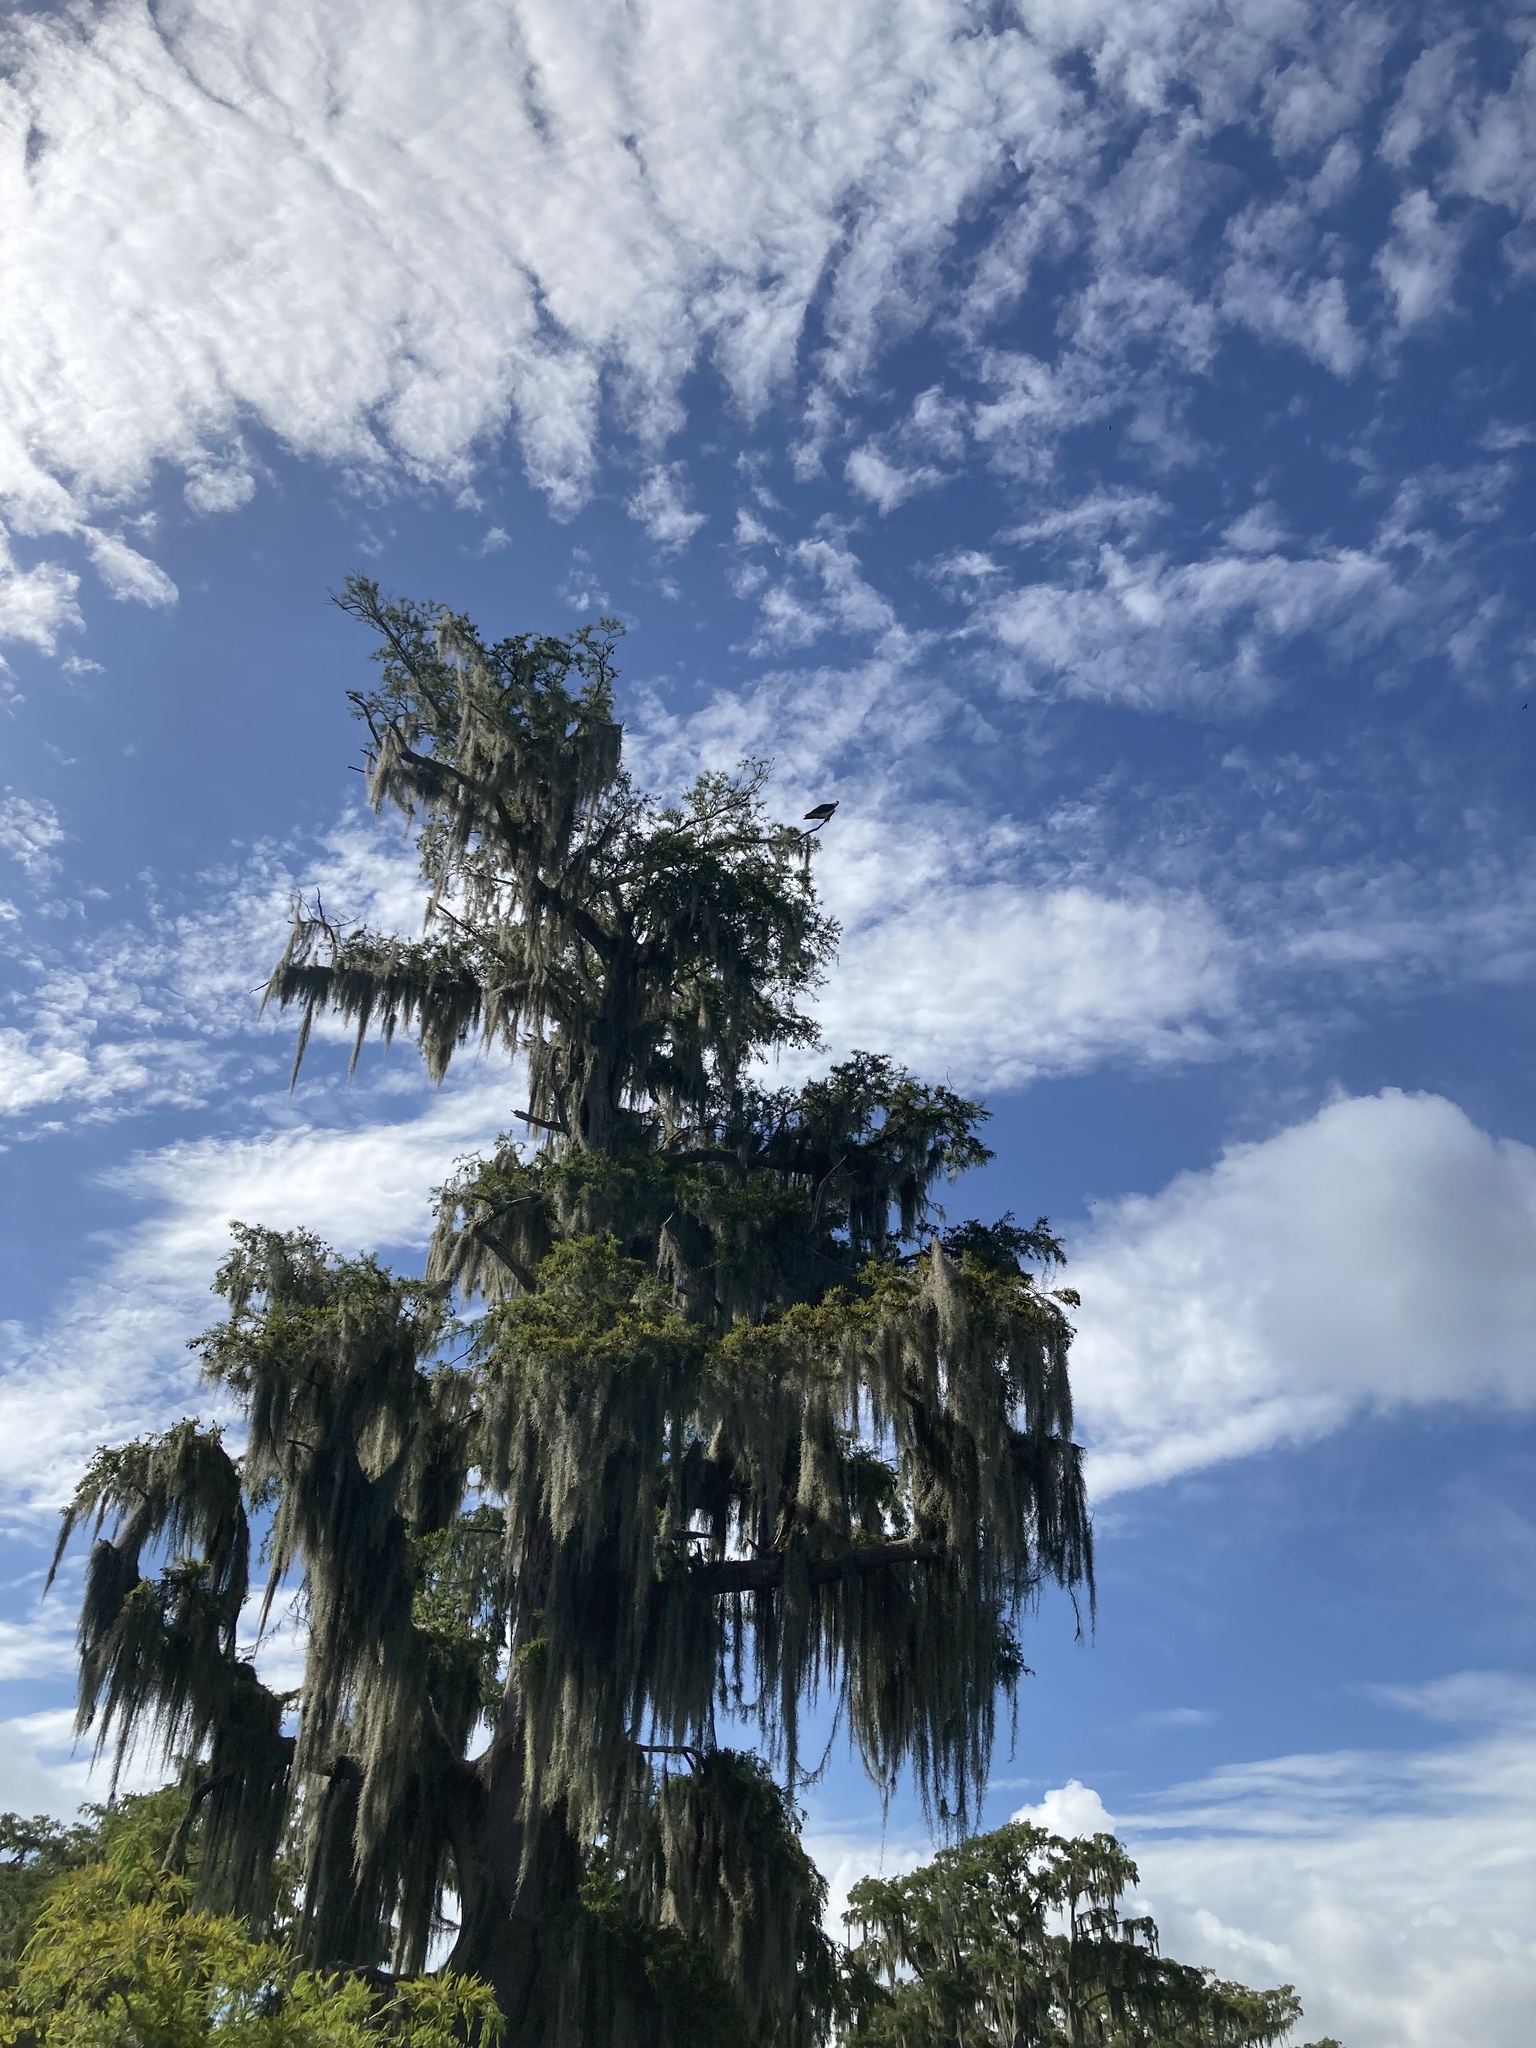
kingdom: Animalia
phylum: Chordata
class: Aves
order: Accipitriformes
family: Pandionidae
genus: Pandion
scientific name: Pandion haliaetus
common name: Osprey
